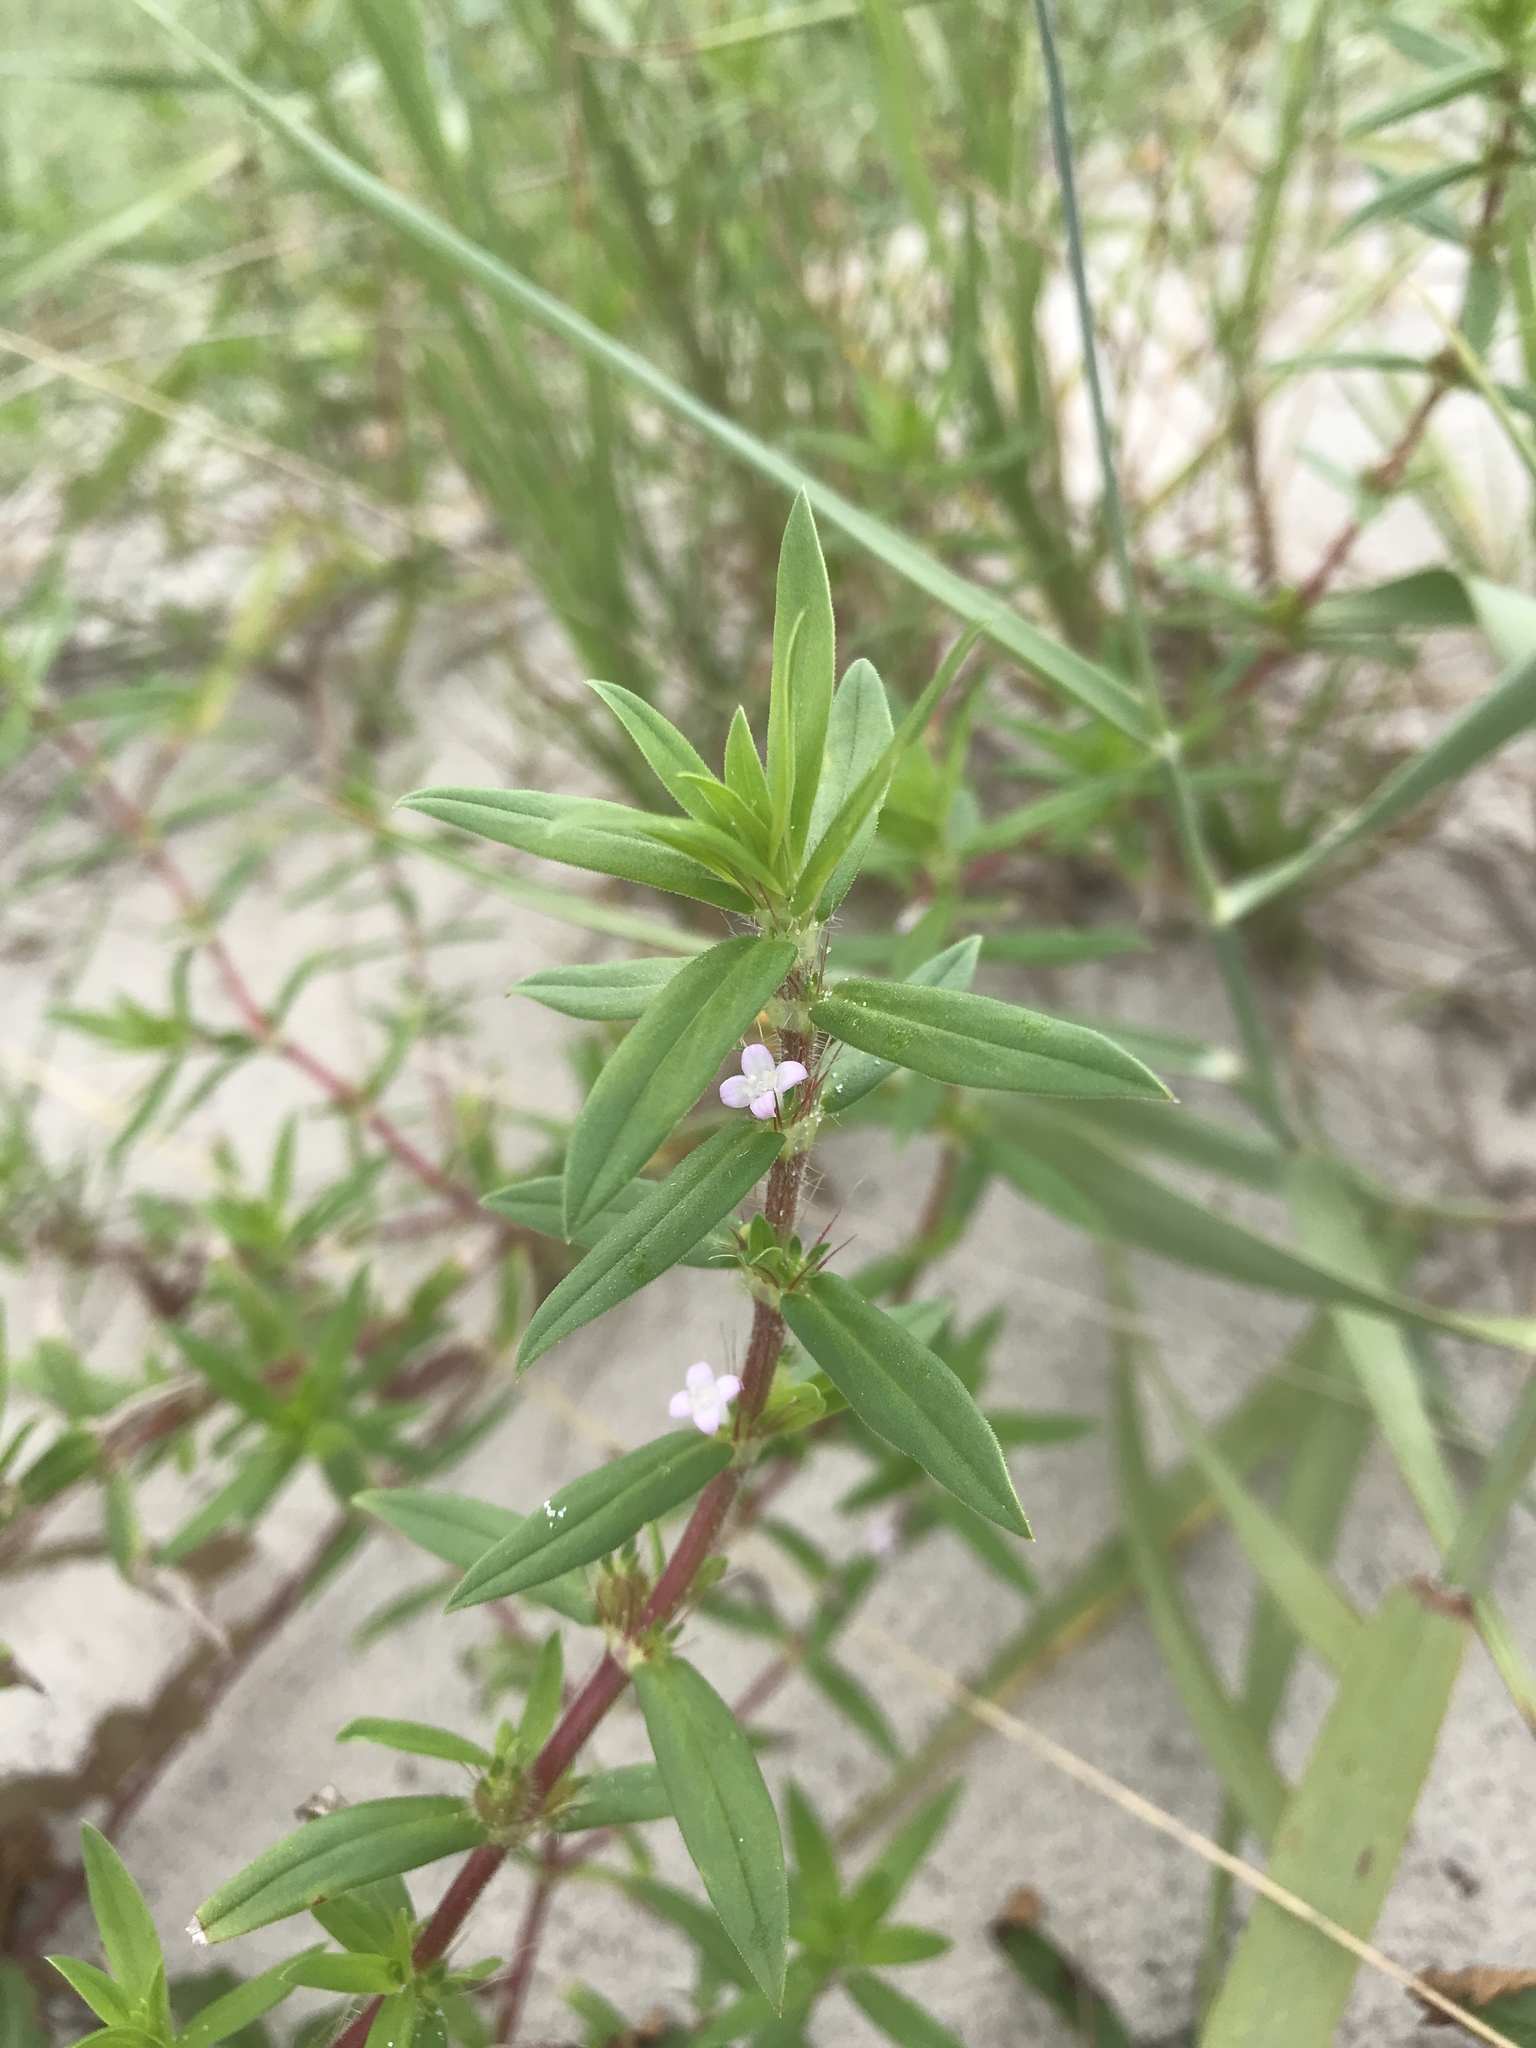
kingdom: Plantae
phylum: Tracheophyta
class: Magnoliopsida
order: Gentianales
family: Rubiaceae
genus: Diodia
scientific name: Diodia virginiana
